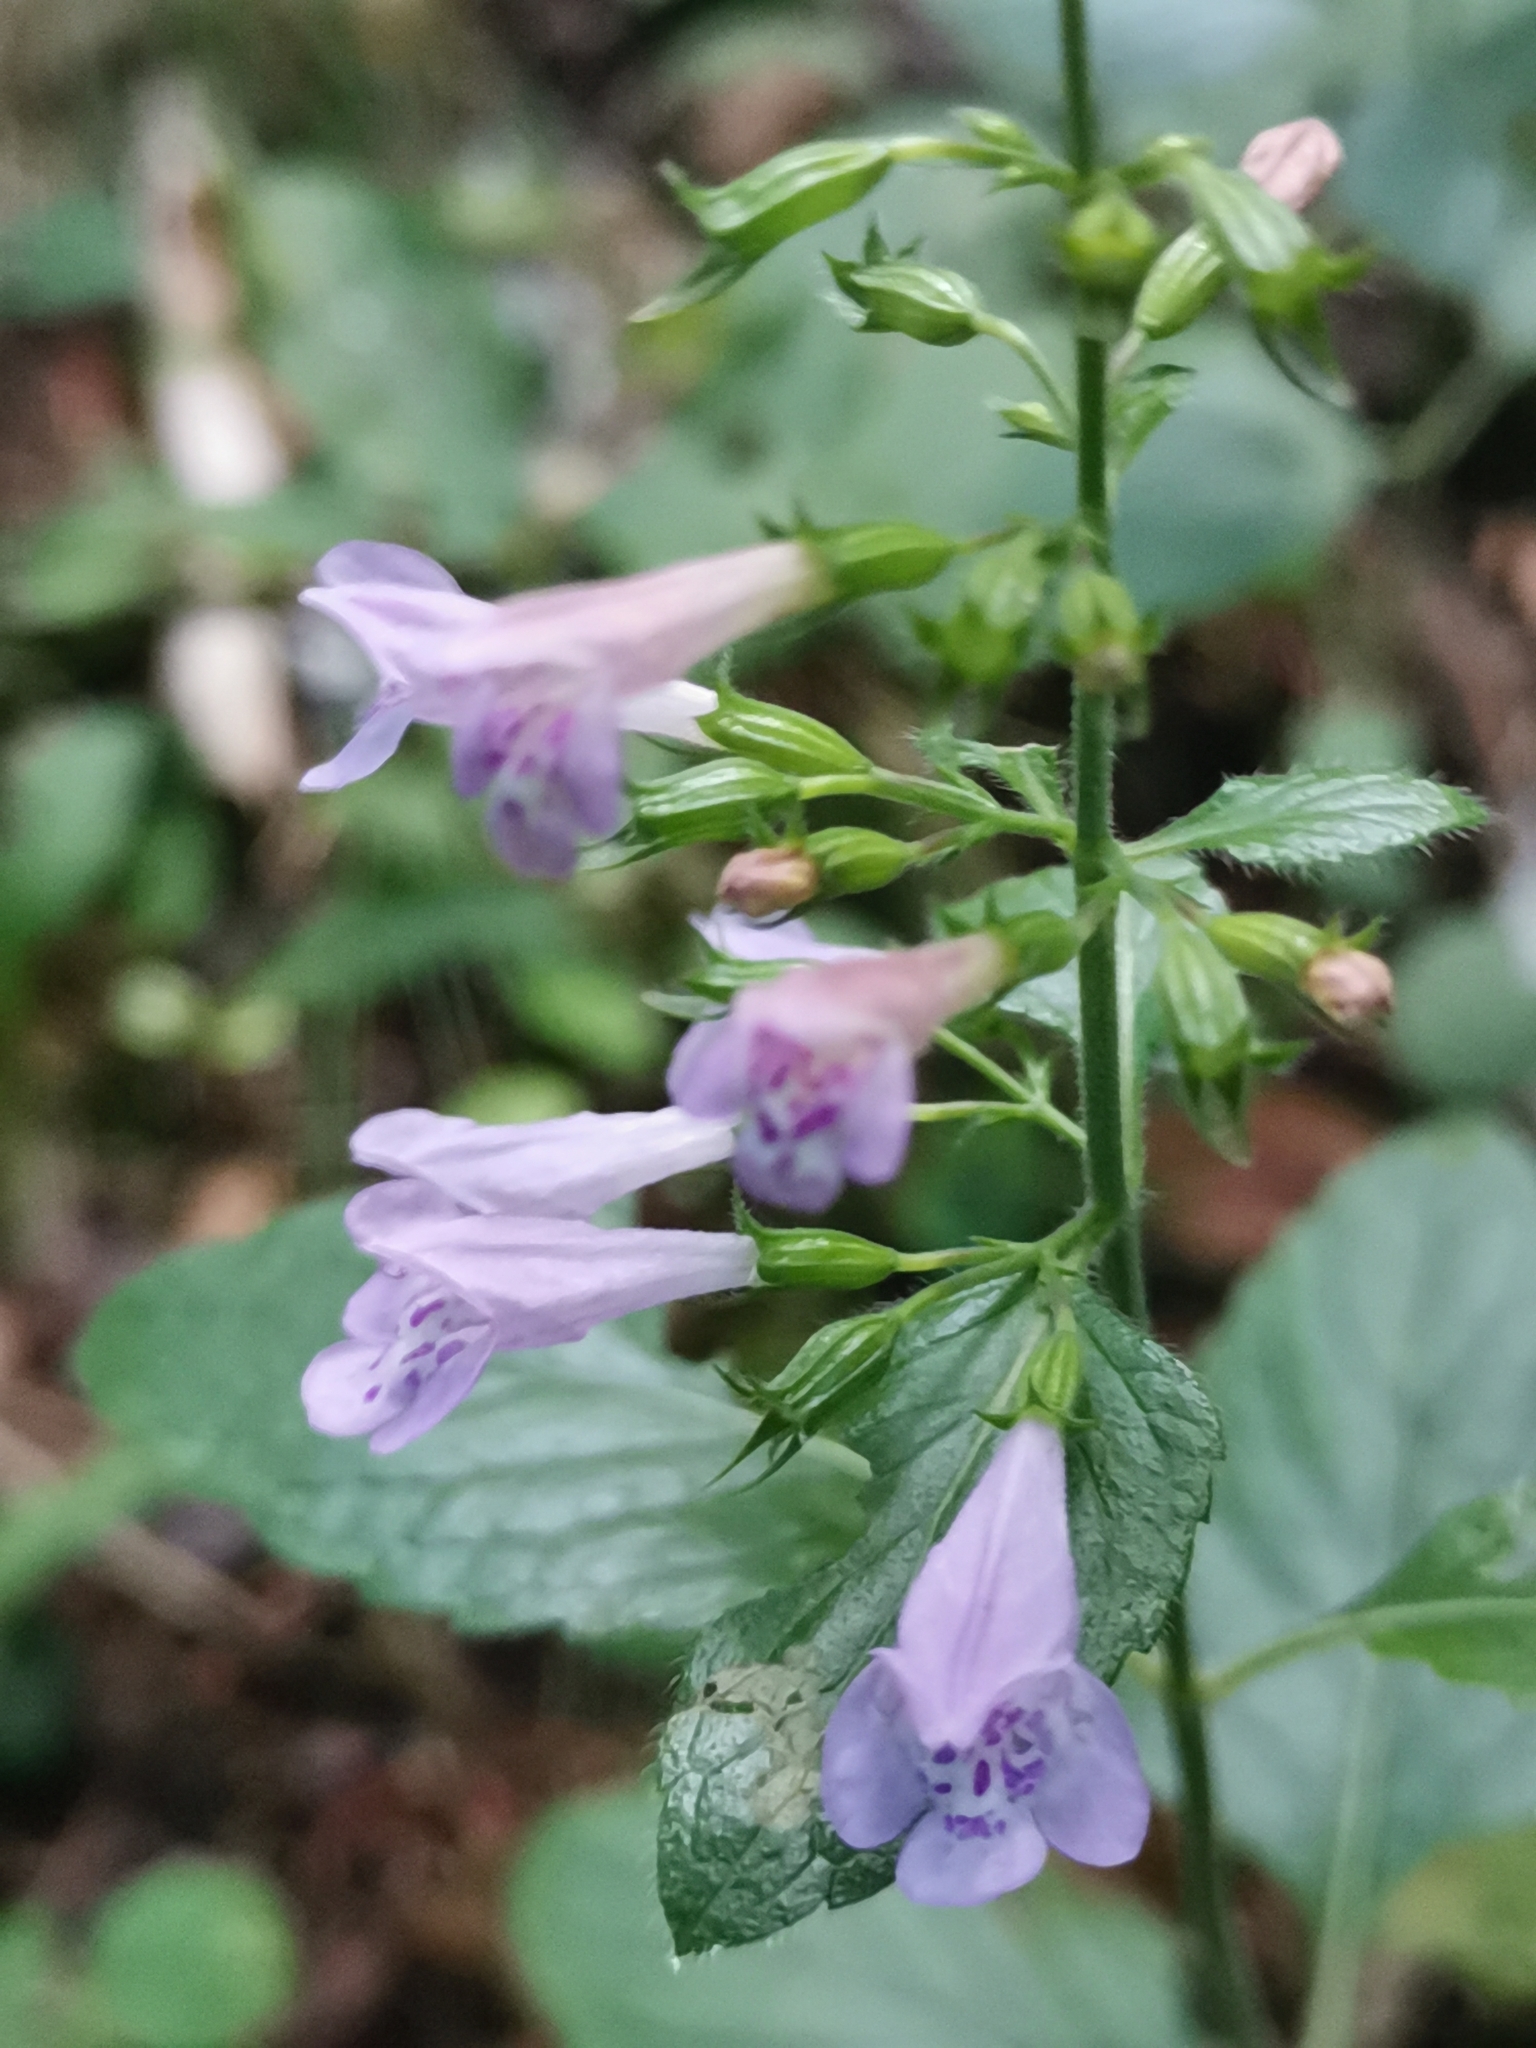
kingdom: Plantae
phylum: Tracheophyta
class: Magnoliopsida
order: Lamiales
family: Lamiaceae
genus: Clinopodium
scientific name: Clinopodium menthifolium
